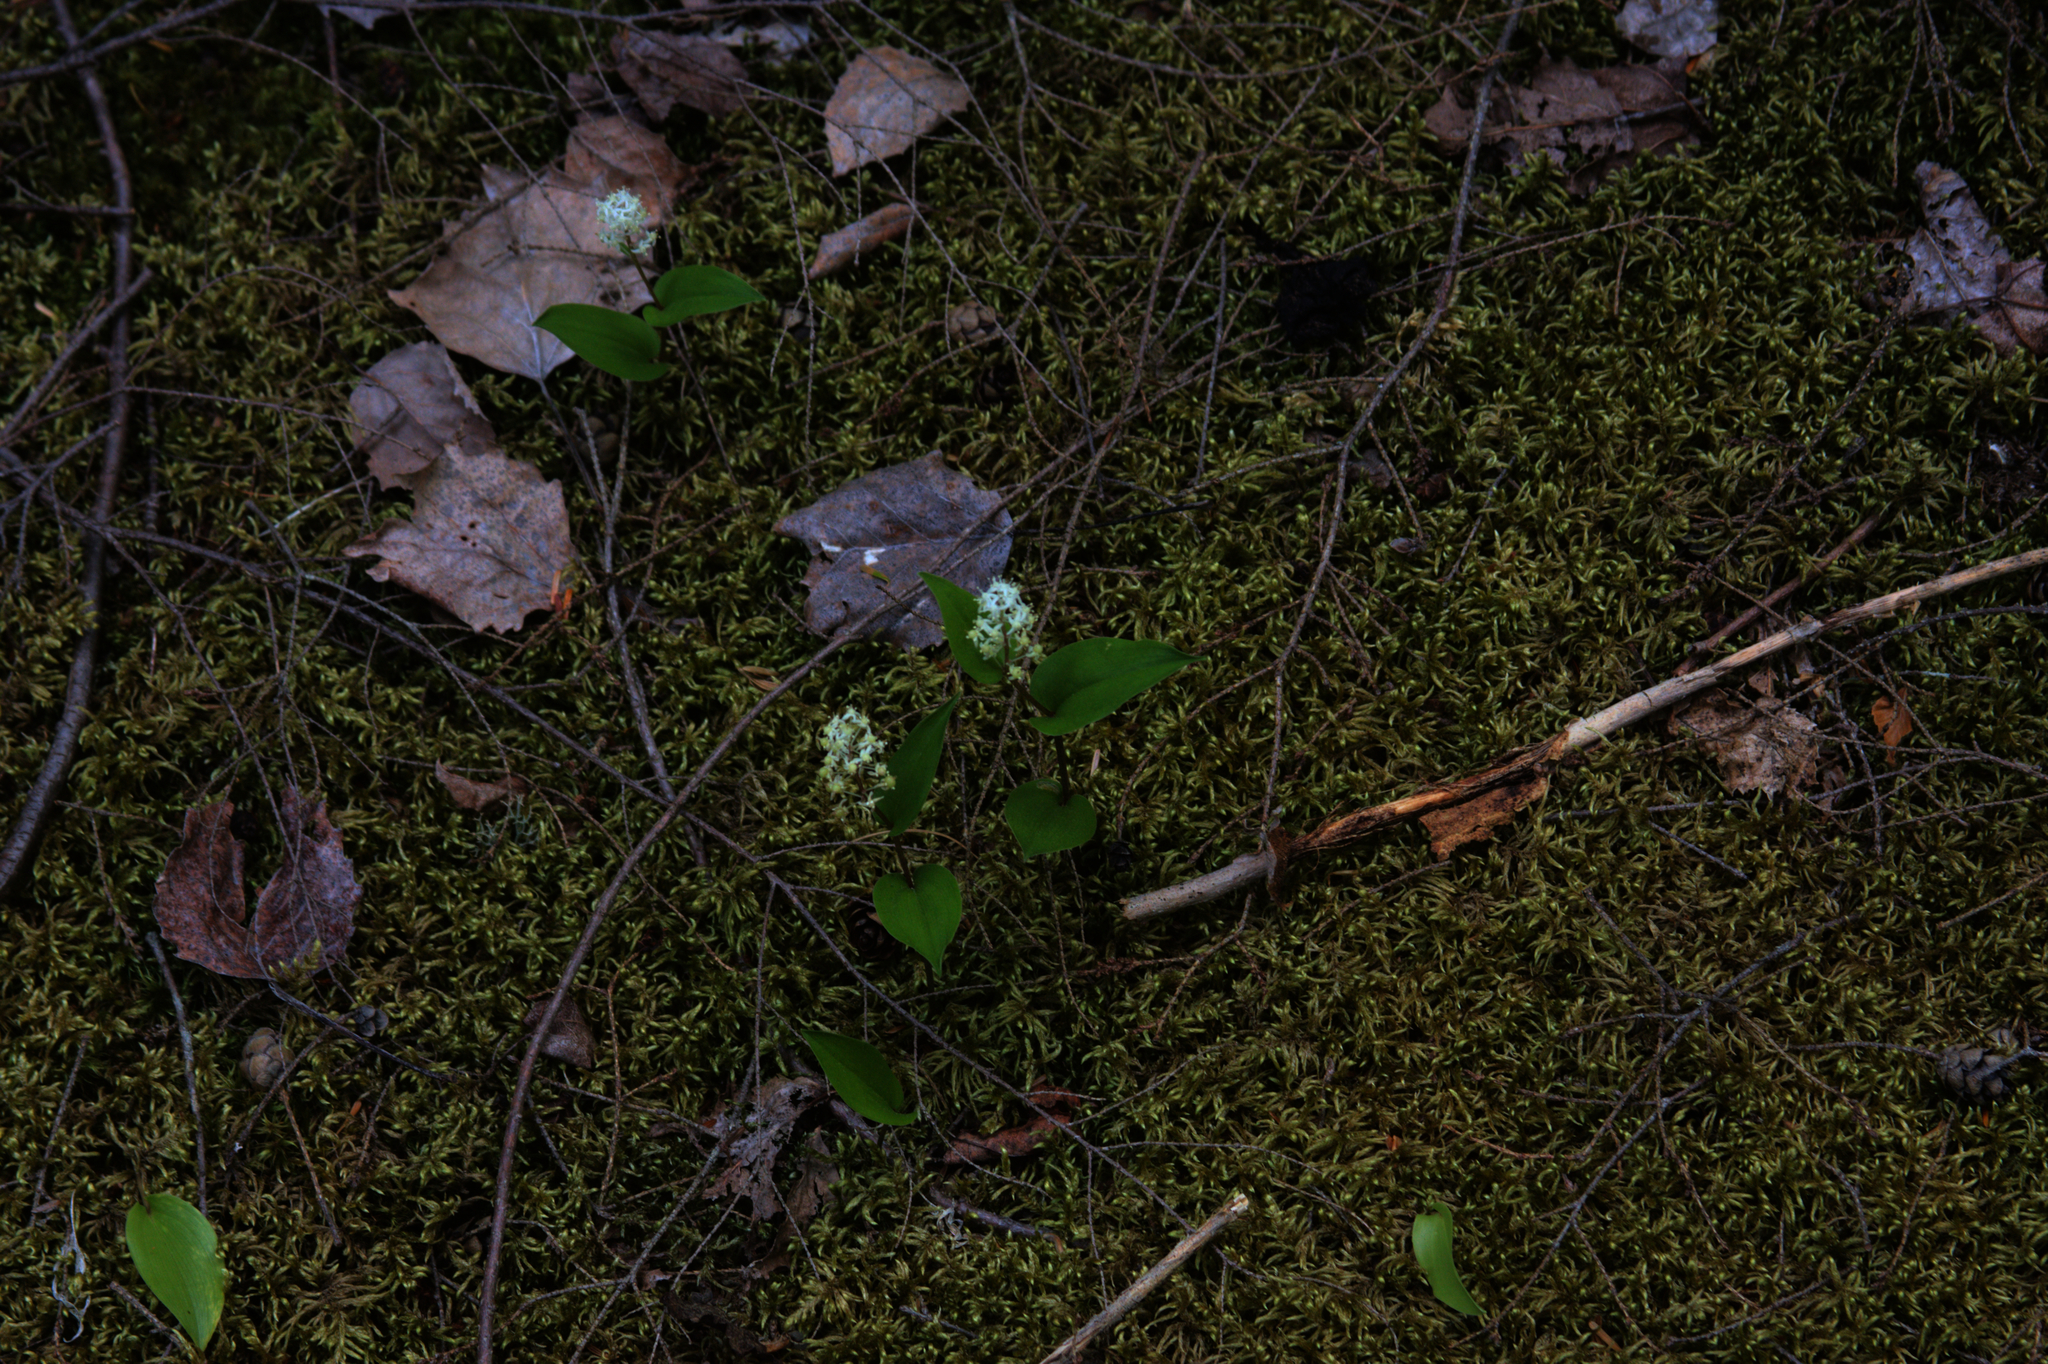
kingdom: Plantae
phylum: Tracheophyta
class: Liliopsida
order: Asparagales
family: Asparagaceae
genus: Maianthemum
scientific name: Maianthemum canadense
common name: False lily-of-the-valley
